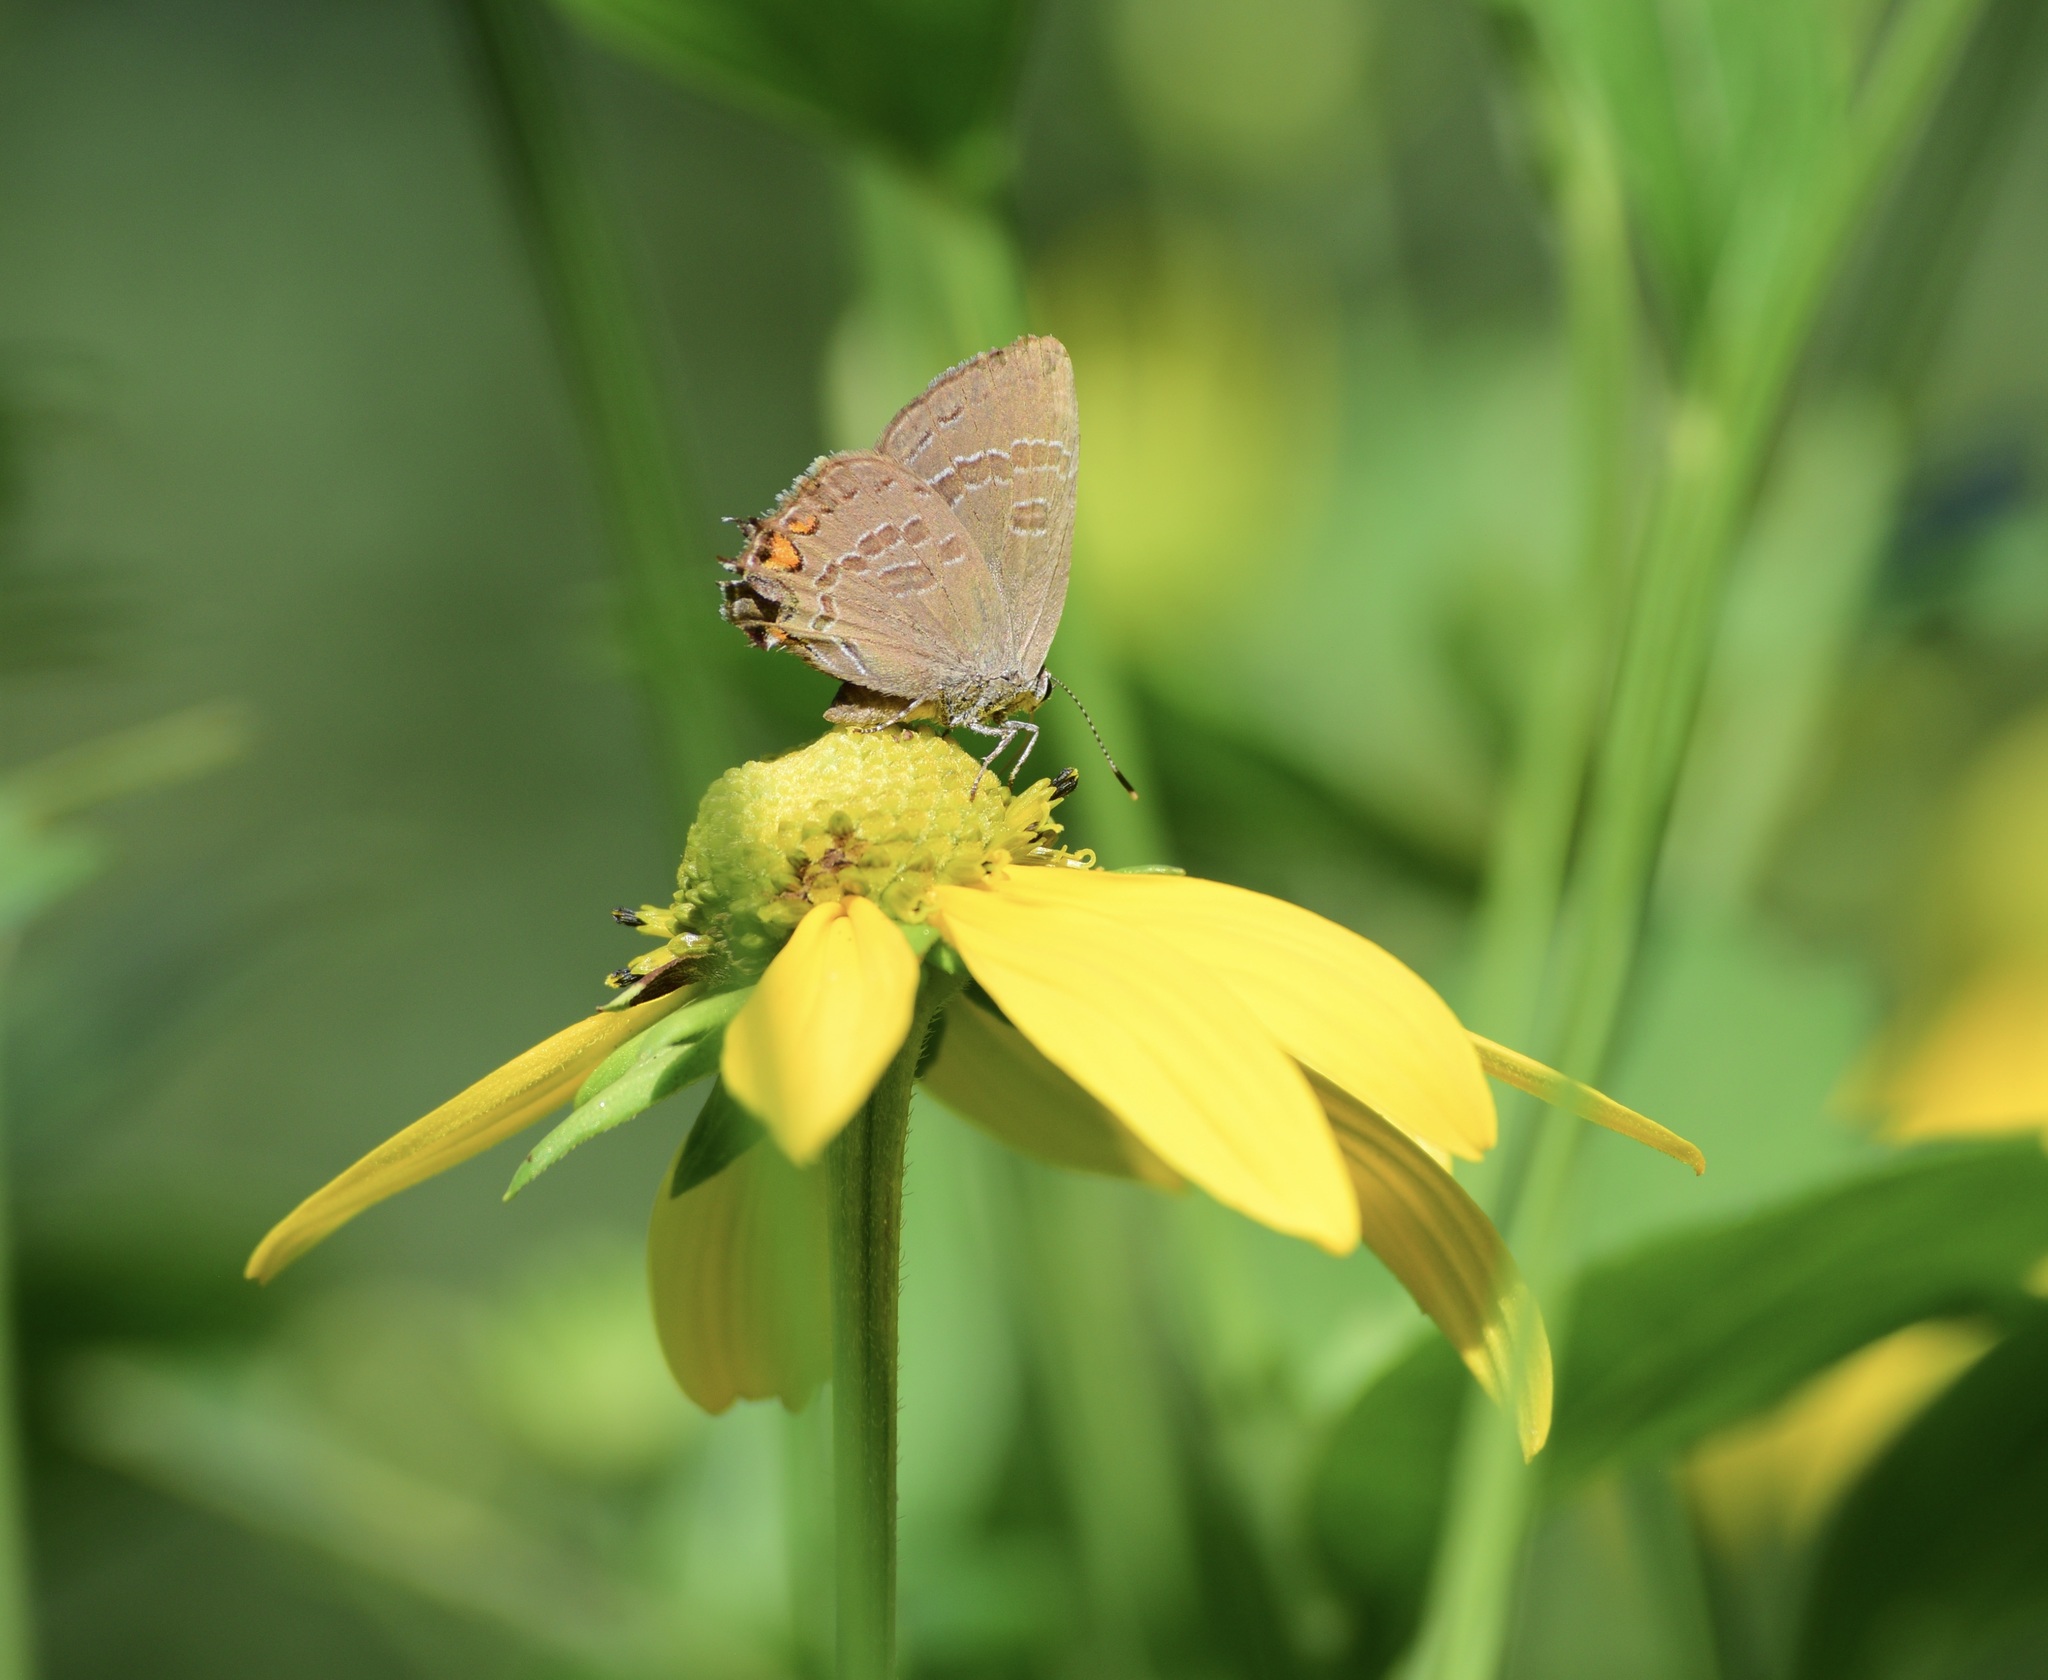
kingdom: Animalia
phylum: Arthropoda
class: Insecta
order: Lepidoptera
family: Lycaenidae
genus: Satyrium
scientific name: Satyrium calanus
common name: Banded hairstreak
